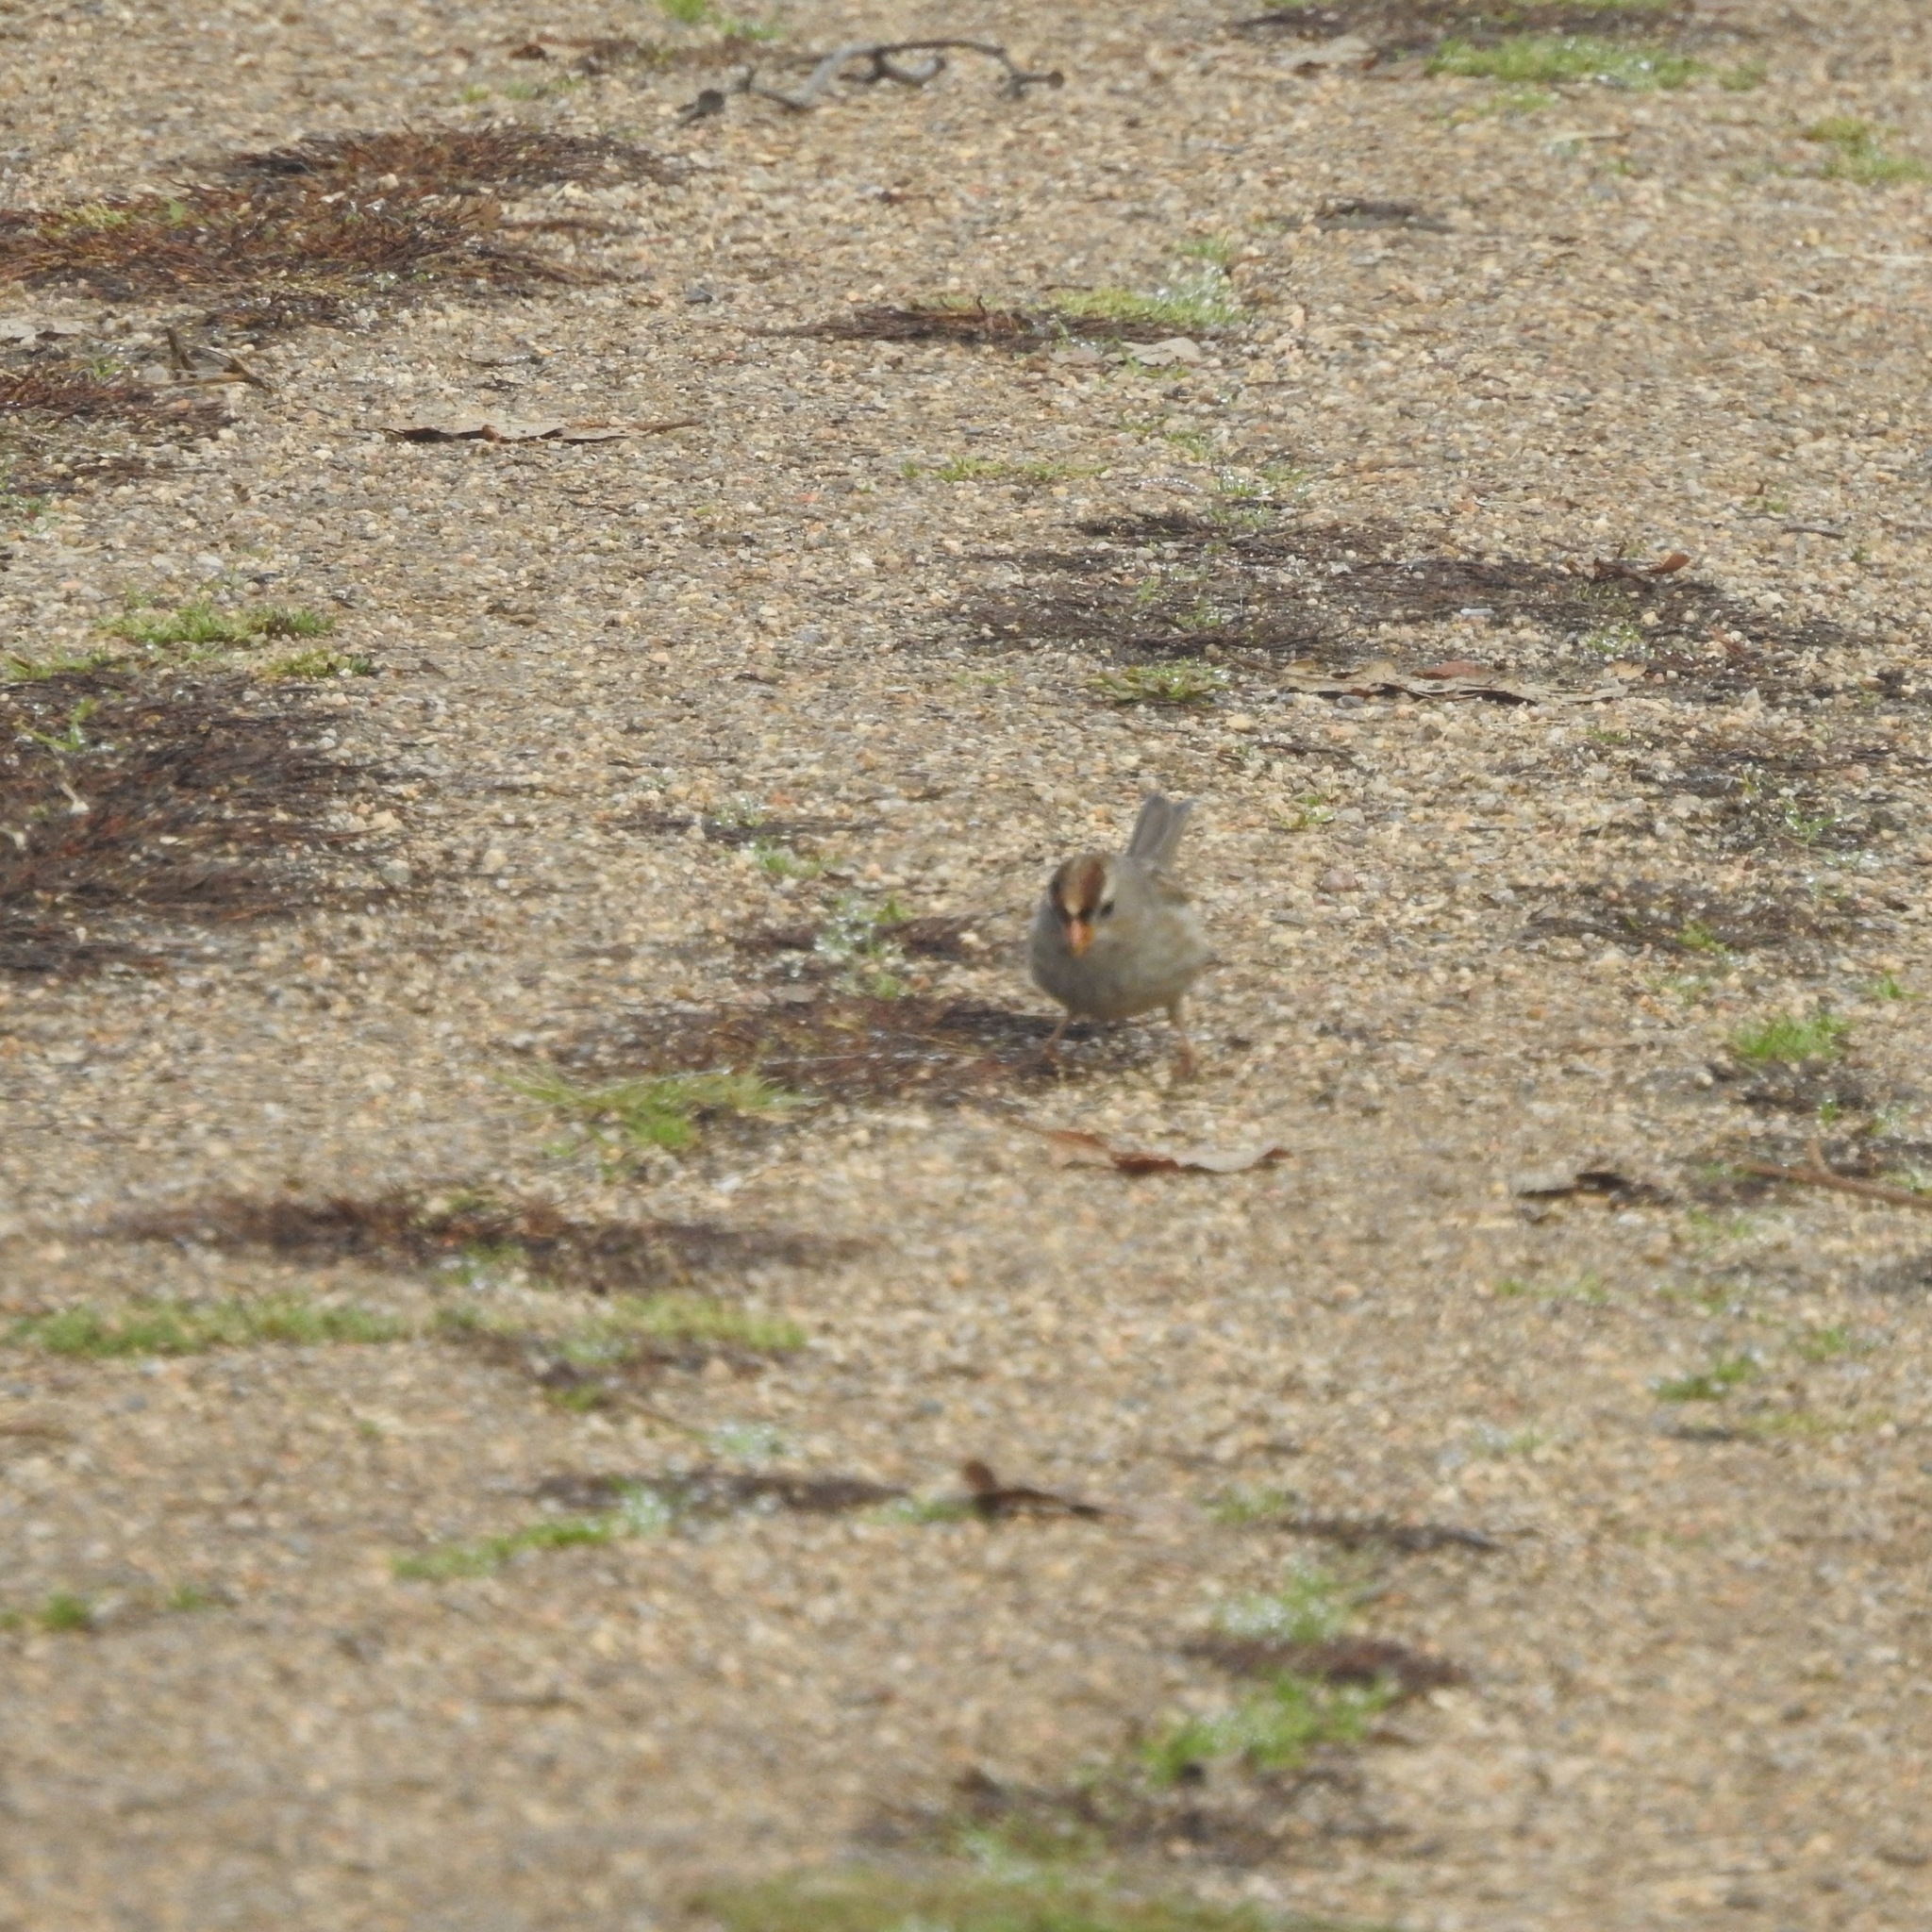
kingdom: Animalia
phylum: Chordata
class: Aves
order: Passeriformes
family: Passerellidae
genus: Zonotrichia
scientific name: Zonotrichia leucophrys
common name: White-crowned sparrow
